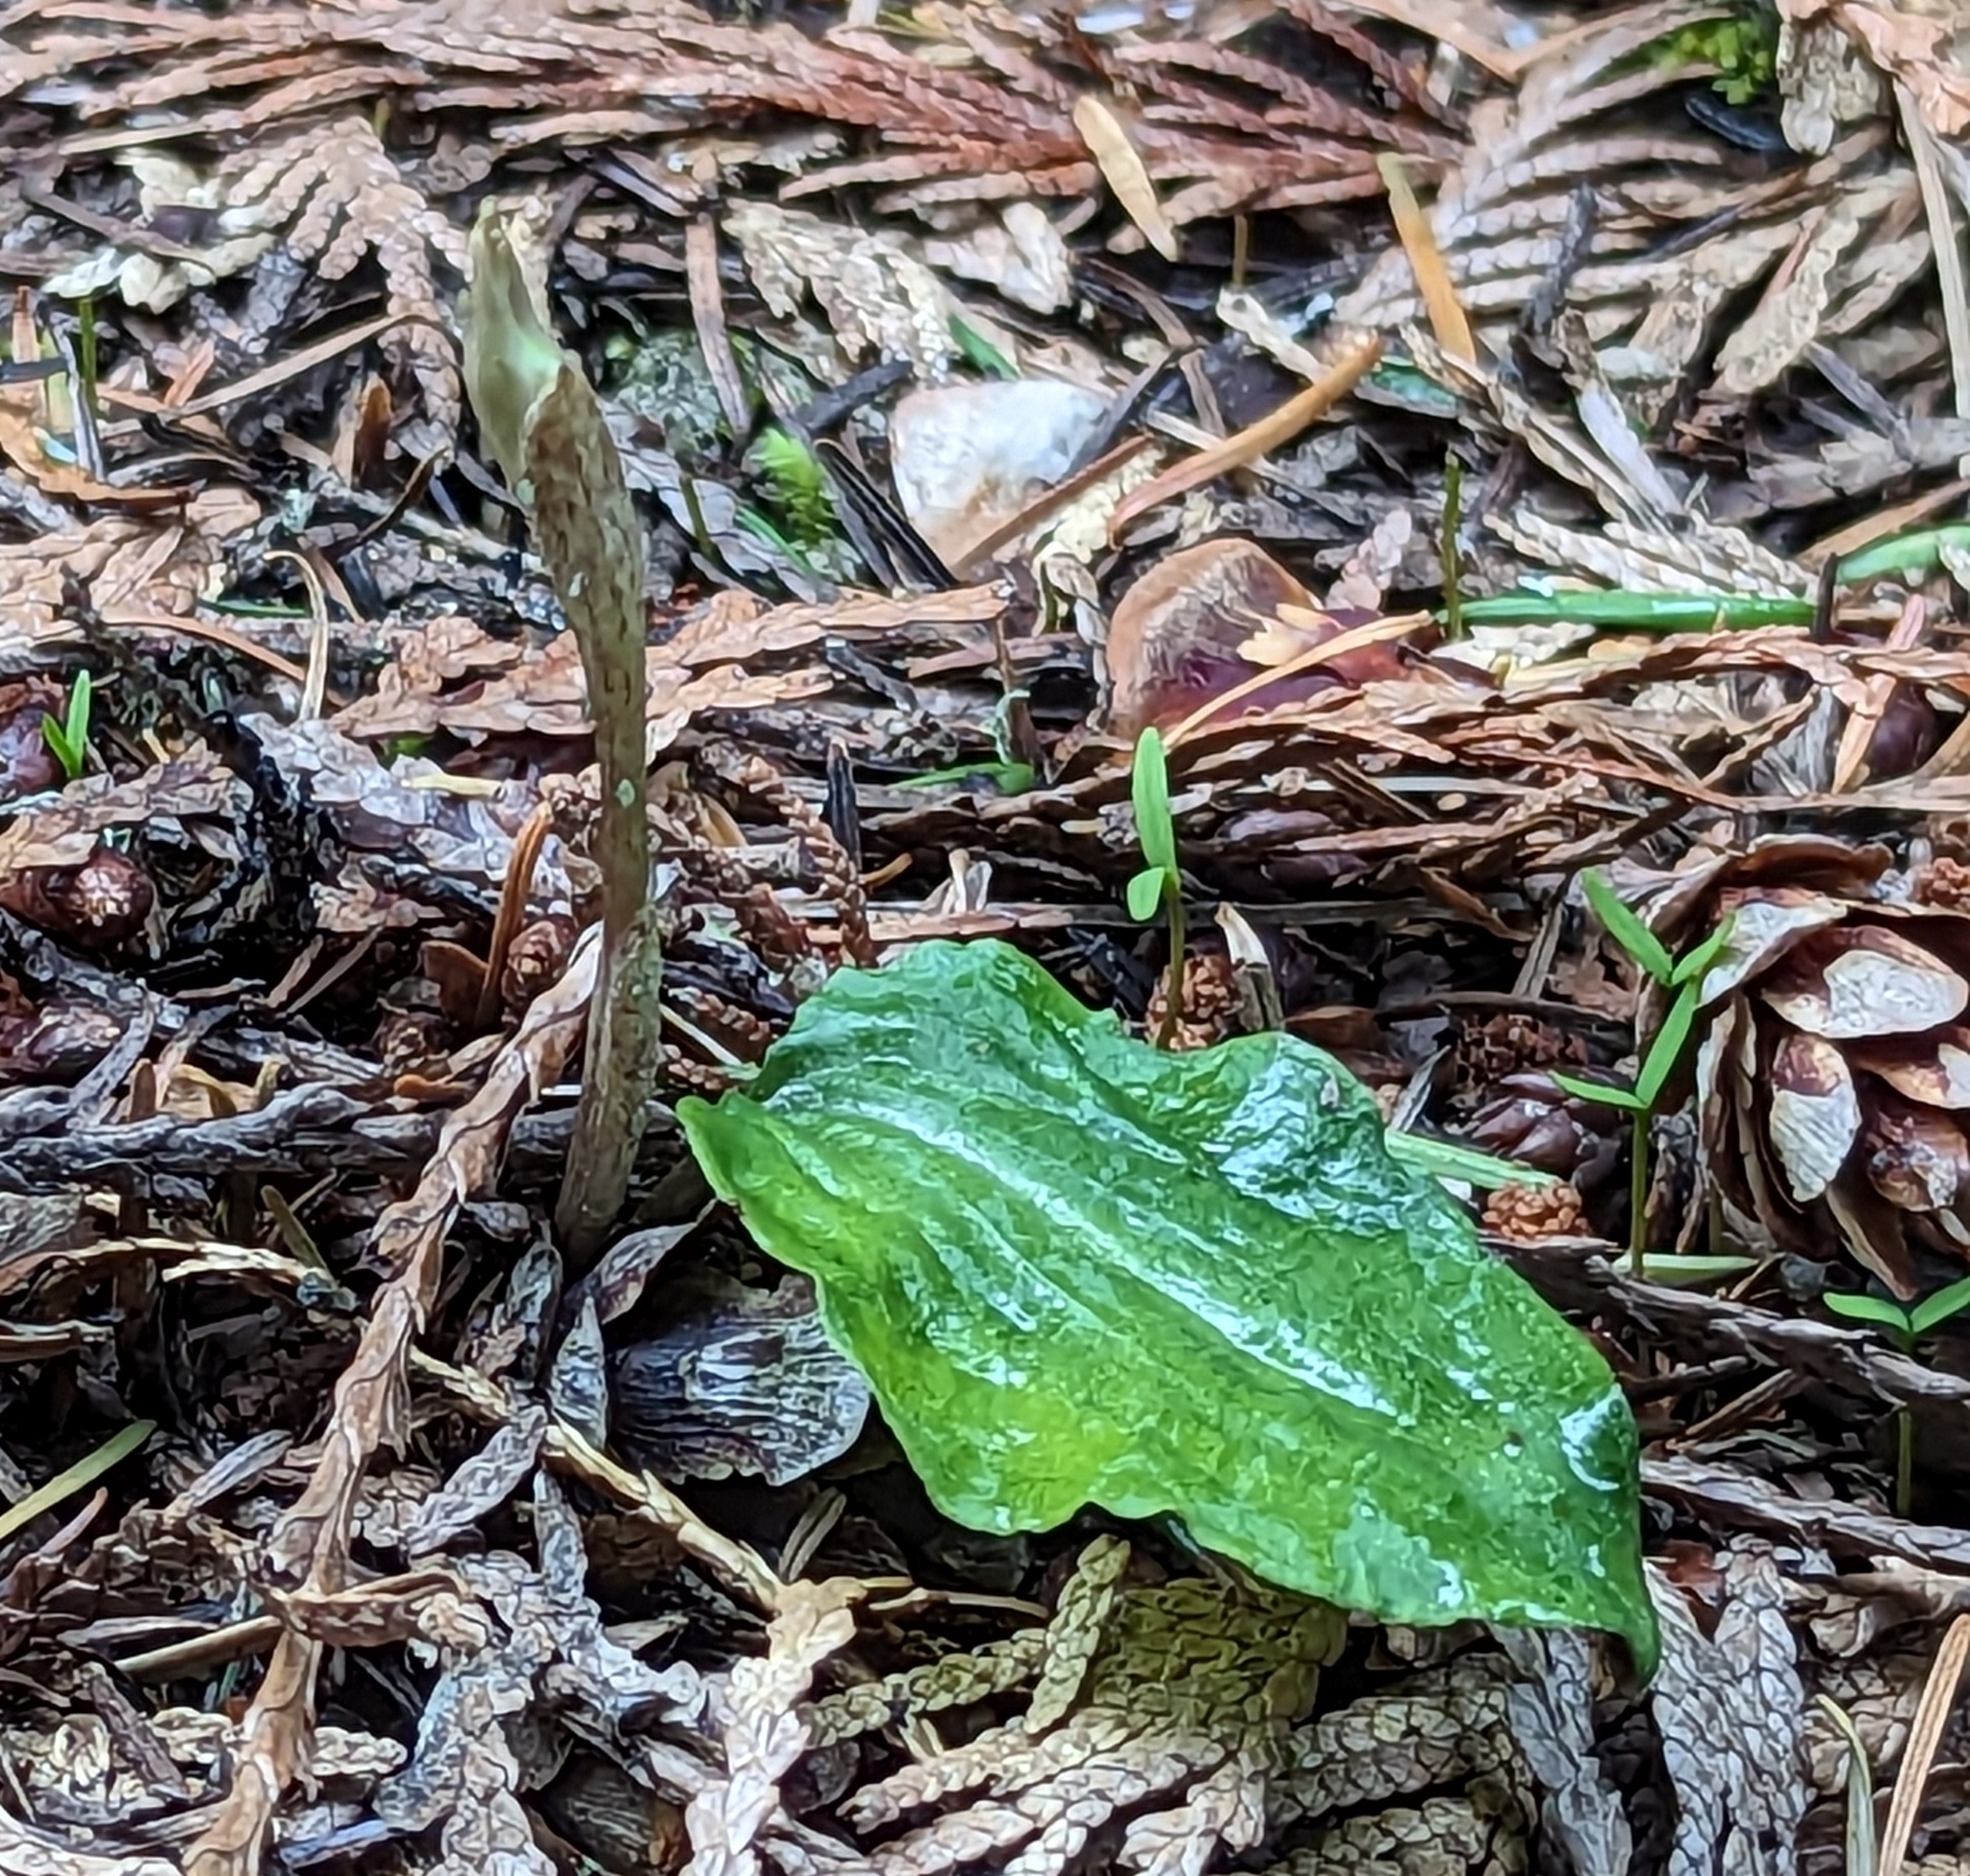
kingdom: Plantae
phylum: Tracheophyta
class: Liliopsida
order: Asparagales
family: Orchidaceae
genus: Calypso
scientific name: Calypso bulbosa
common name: Calypso
